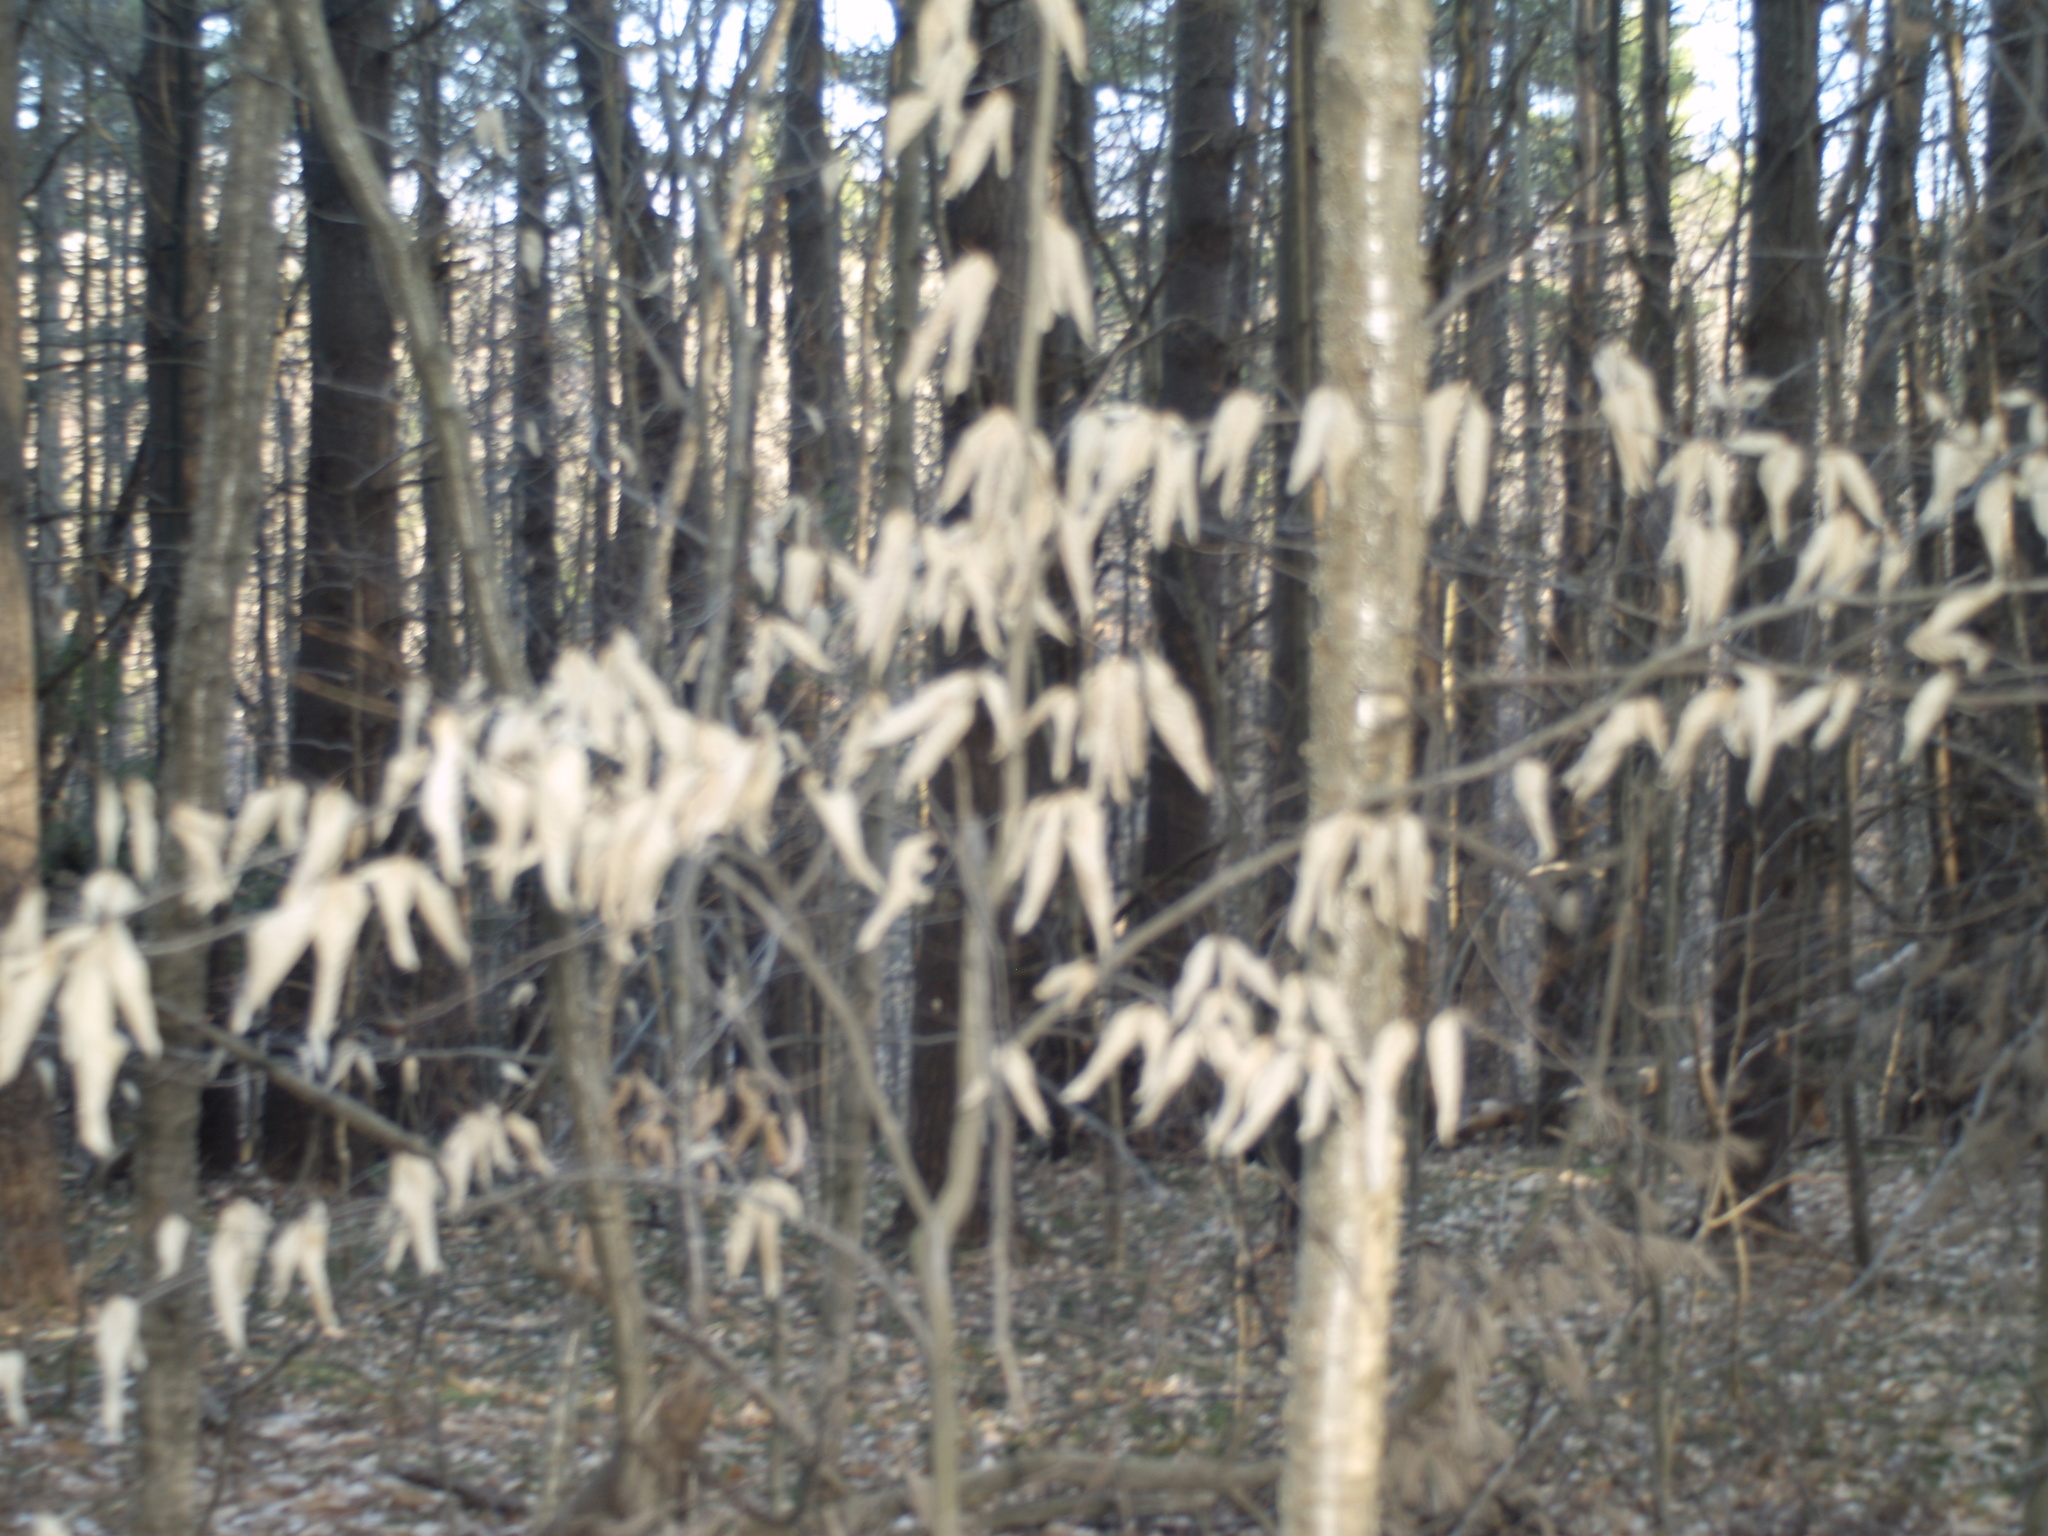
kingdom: Plantae
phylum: Tracheophyta
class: Magnoliopsida
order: Fagales
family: Fagaceae
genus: Fagus
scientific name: Fagus grandifolia
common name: American beech
